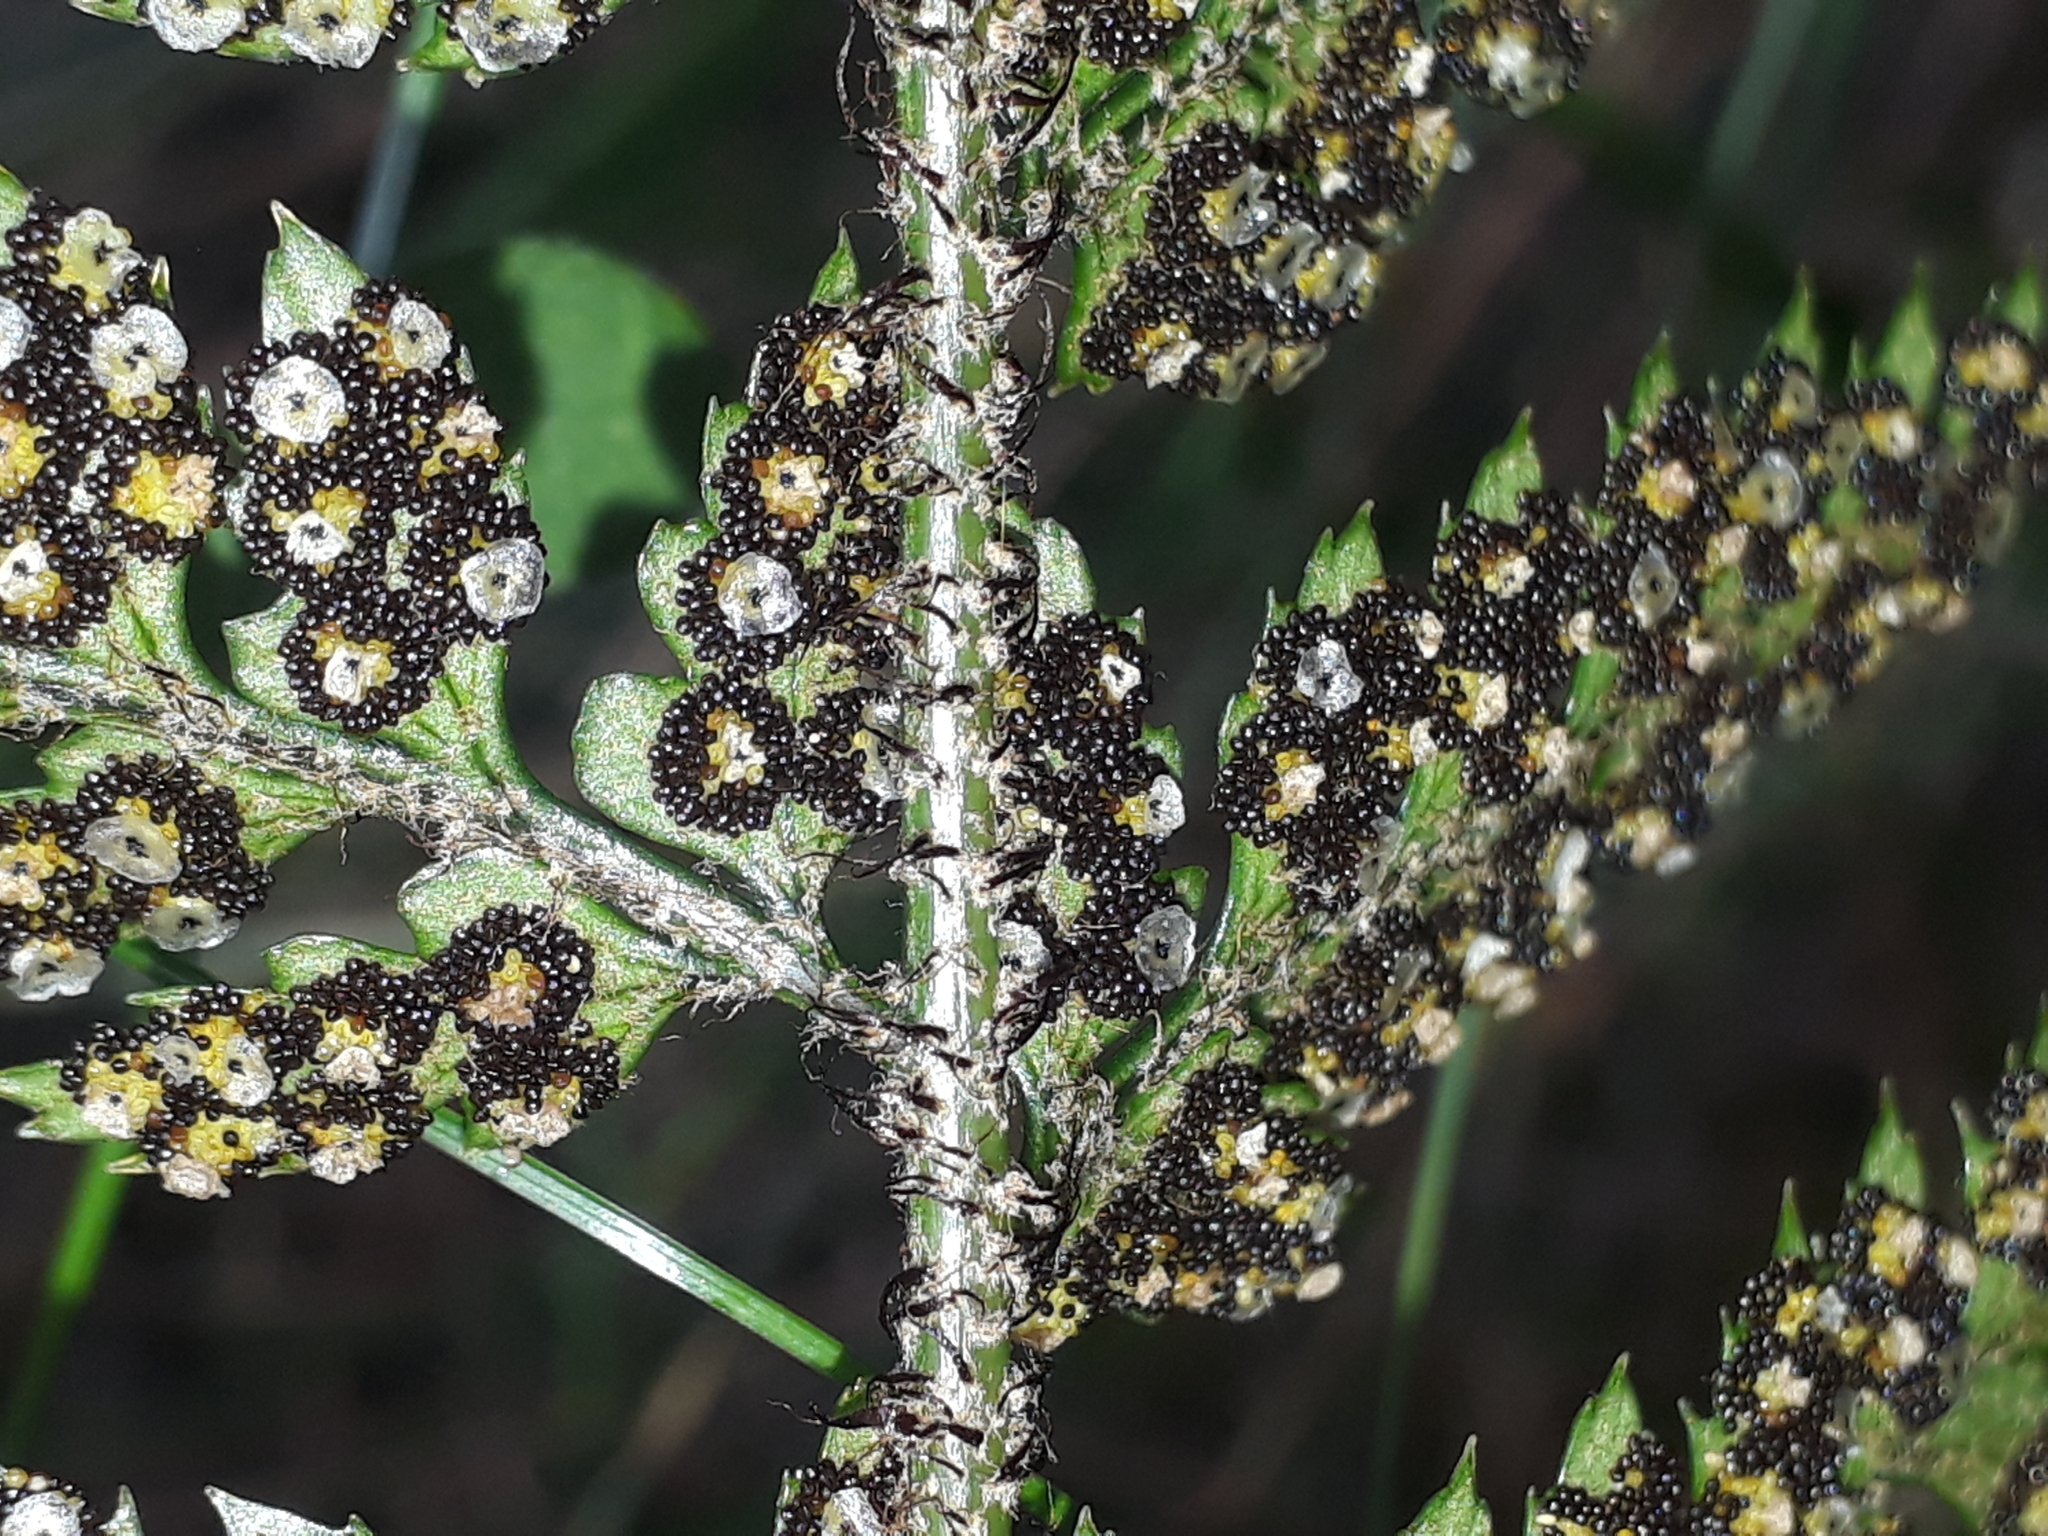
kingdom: Plantae
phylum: Tracheophyta
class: Polypodiopsida
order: Polypodiales
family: Dryopteridaceae
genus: Polystichum
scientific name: Polystichum neozelandicum
